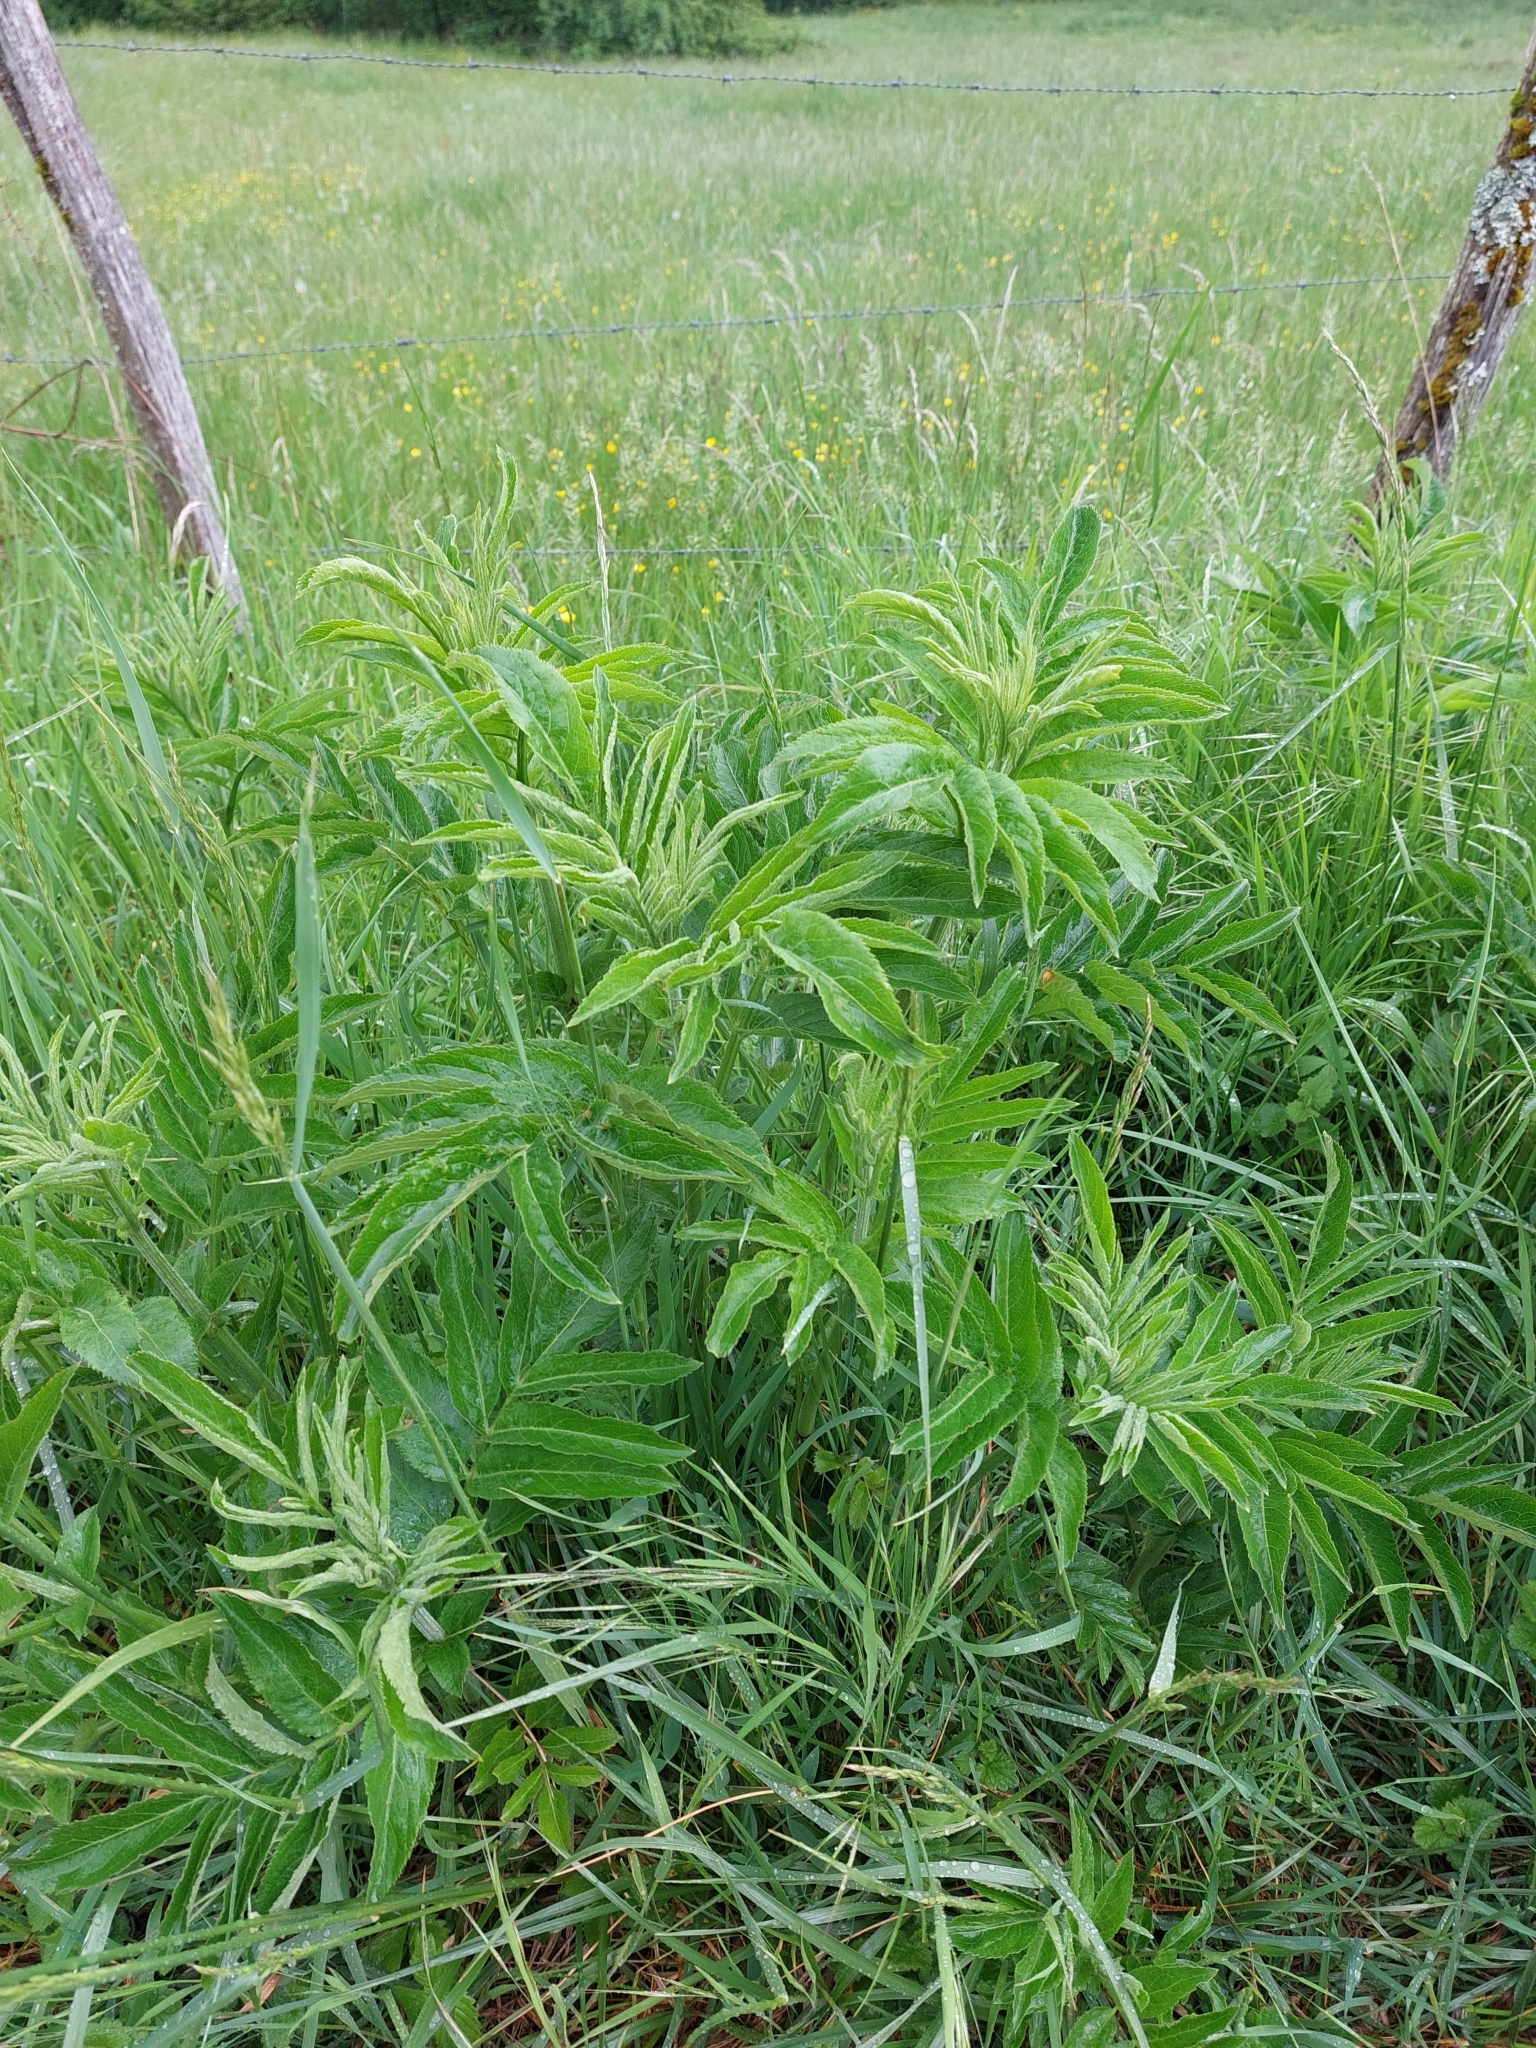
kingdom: Plantae
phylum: Tracheophyta
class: Magnoliopsida
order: Dipsacales
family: Viburnaceae
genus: Sambucus
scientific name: Sambucus ebulus
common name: Dwarf elder
